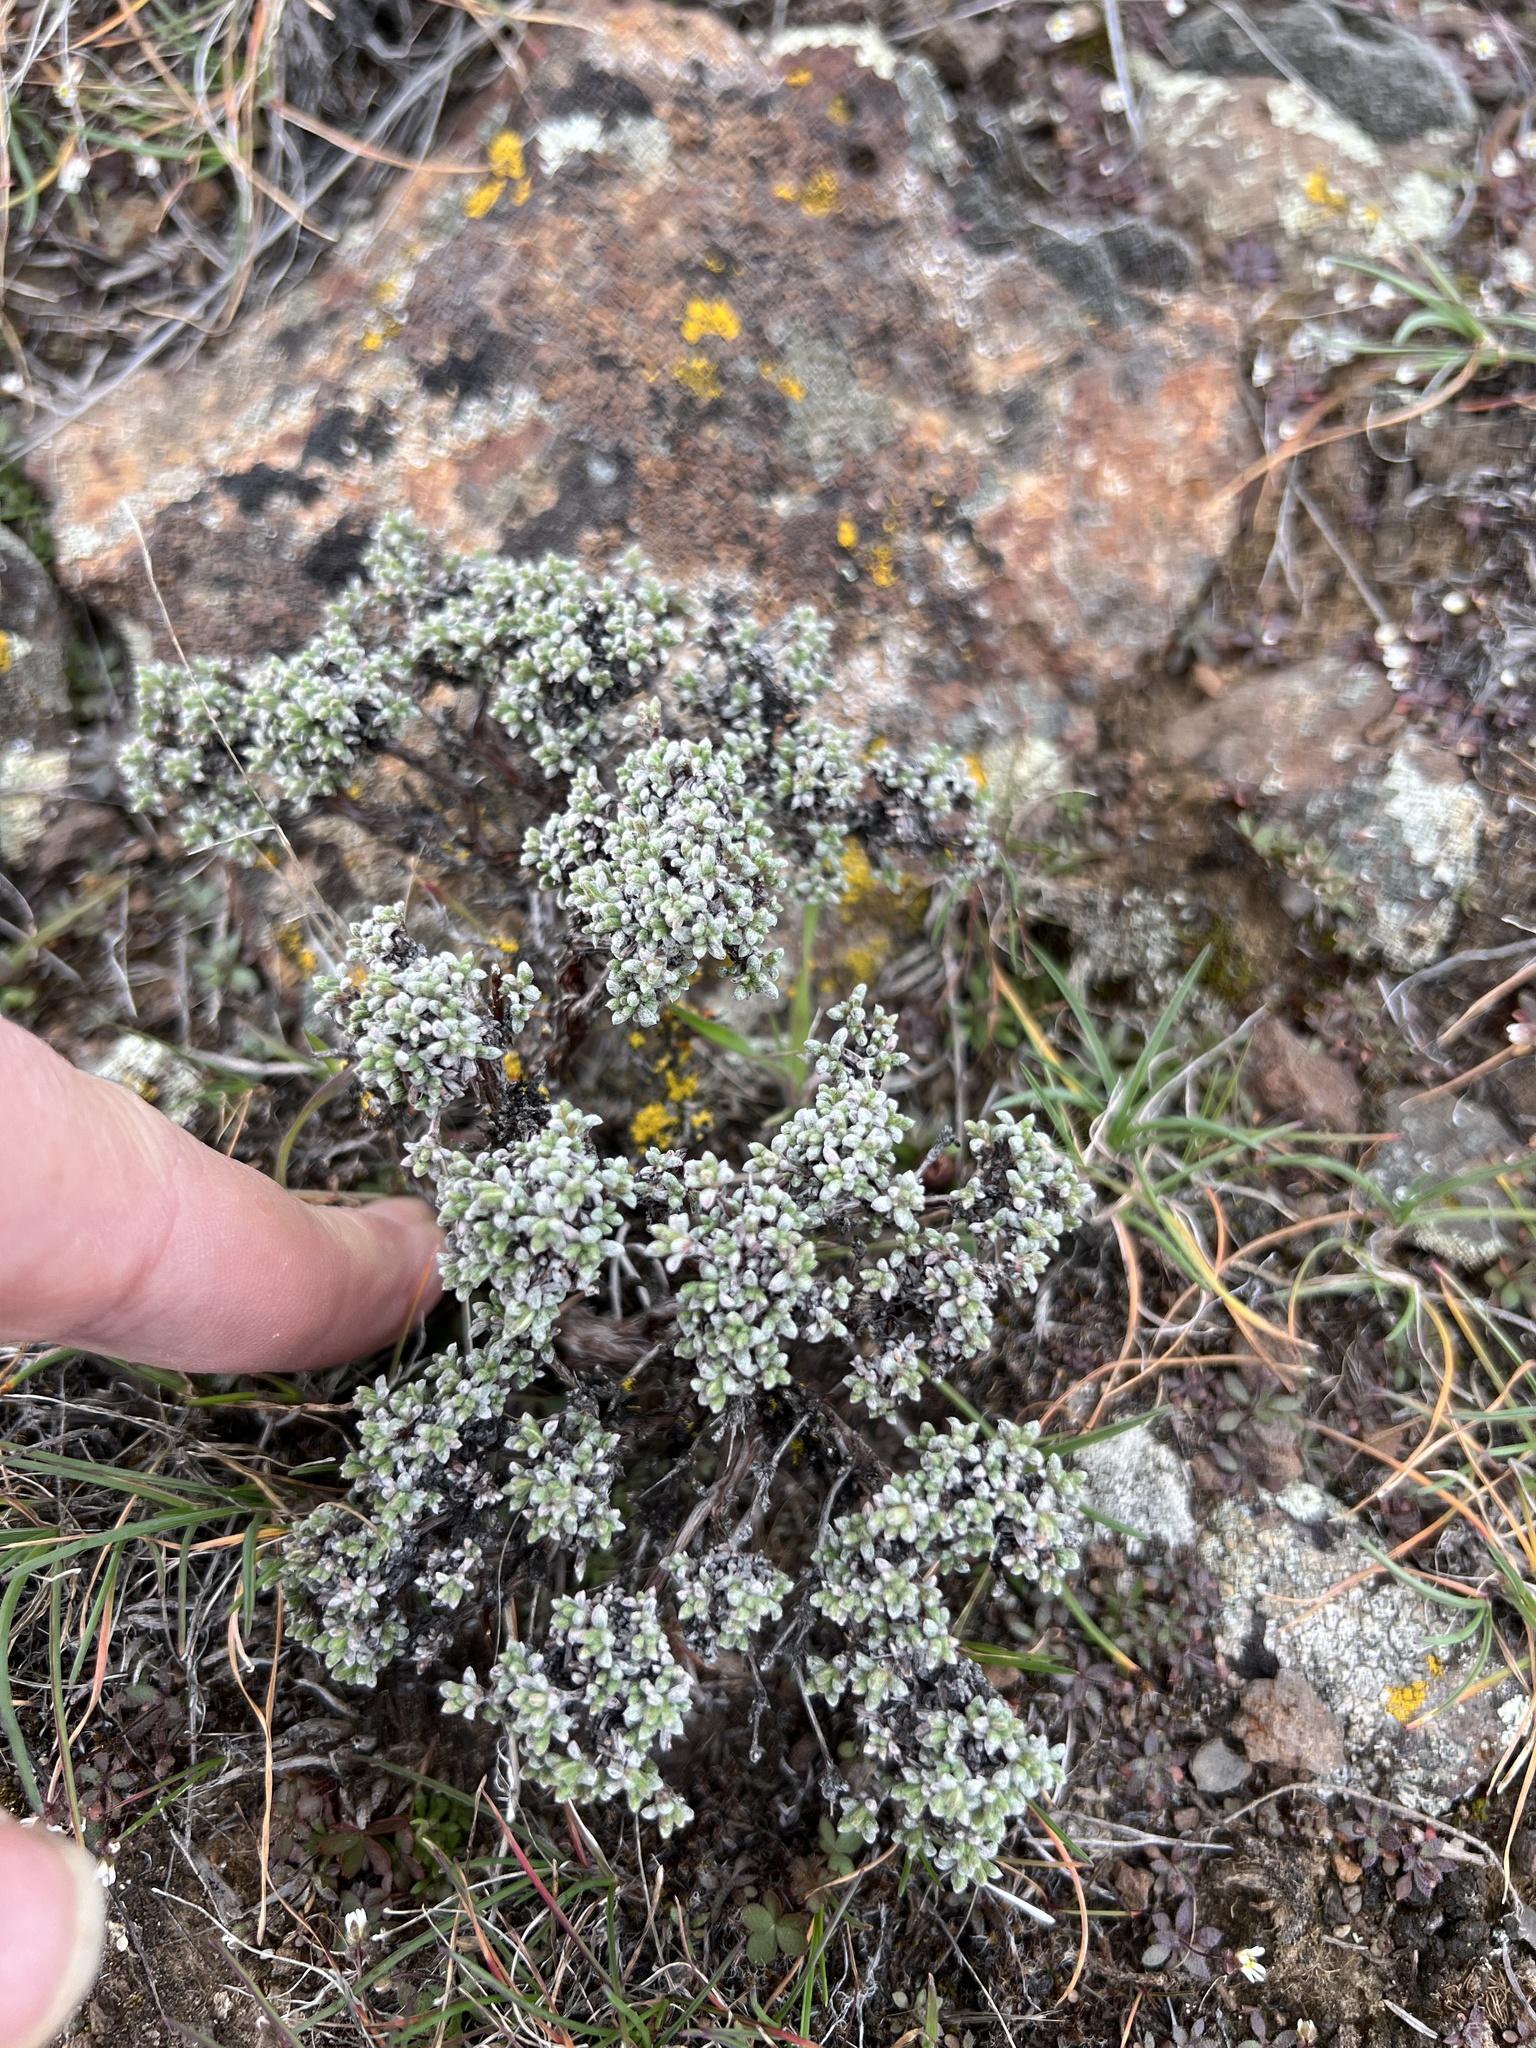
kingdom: Plantae
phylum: Tracheophyta
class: Magnoliopsida
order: Caryophyllales
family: Polygonaceae
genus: Eriogonum
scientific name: Eriogonum thymoides
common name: Thyme-leaf wild buckwheat
